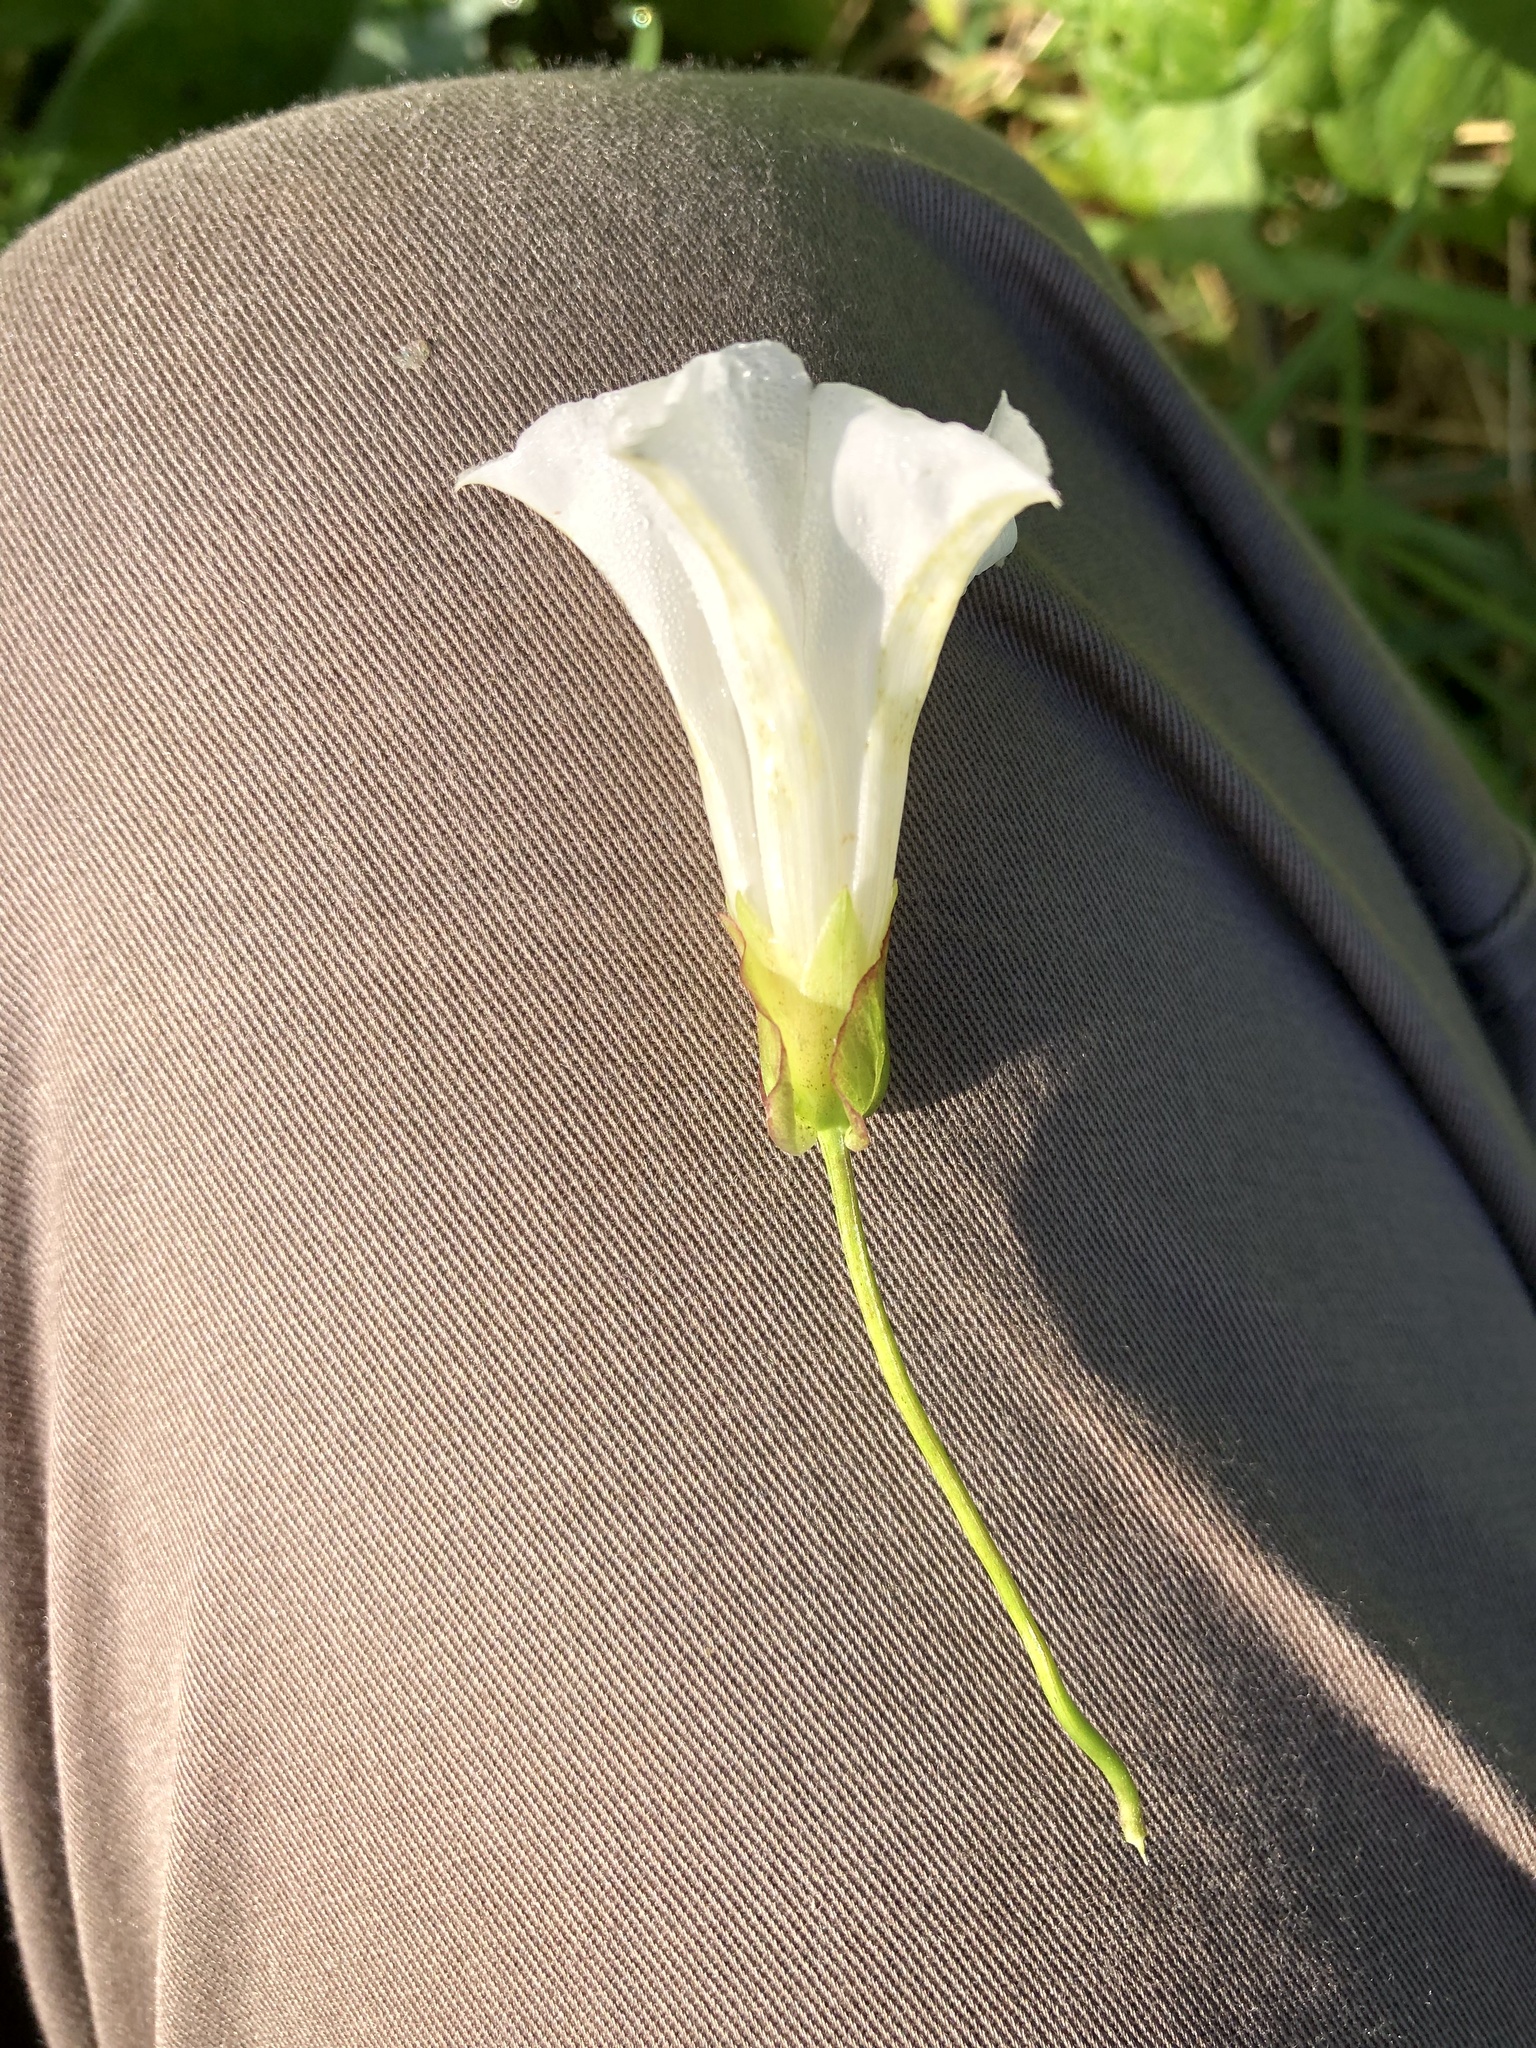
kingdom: Plantae
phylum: Tracheophyta
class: Magnoliopsida
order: Solanales
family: Convolvulaceae
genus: Calystegia
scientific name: Calystegia sepium
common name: Hedge bindweed
